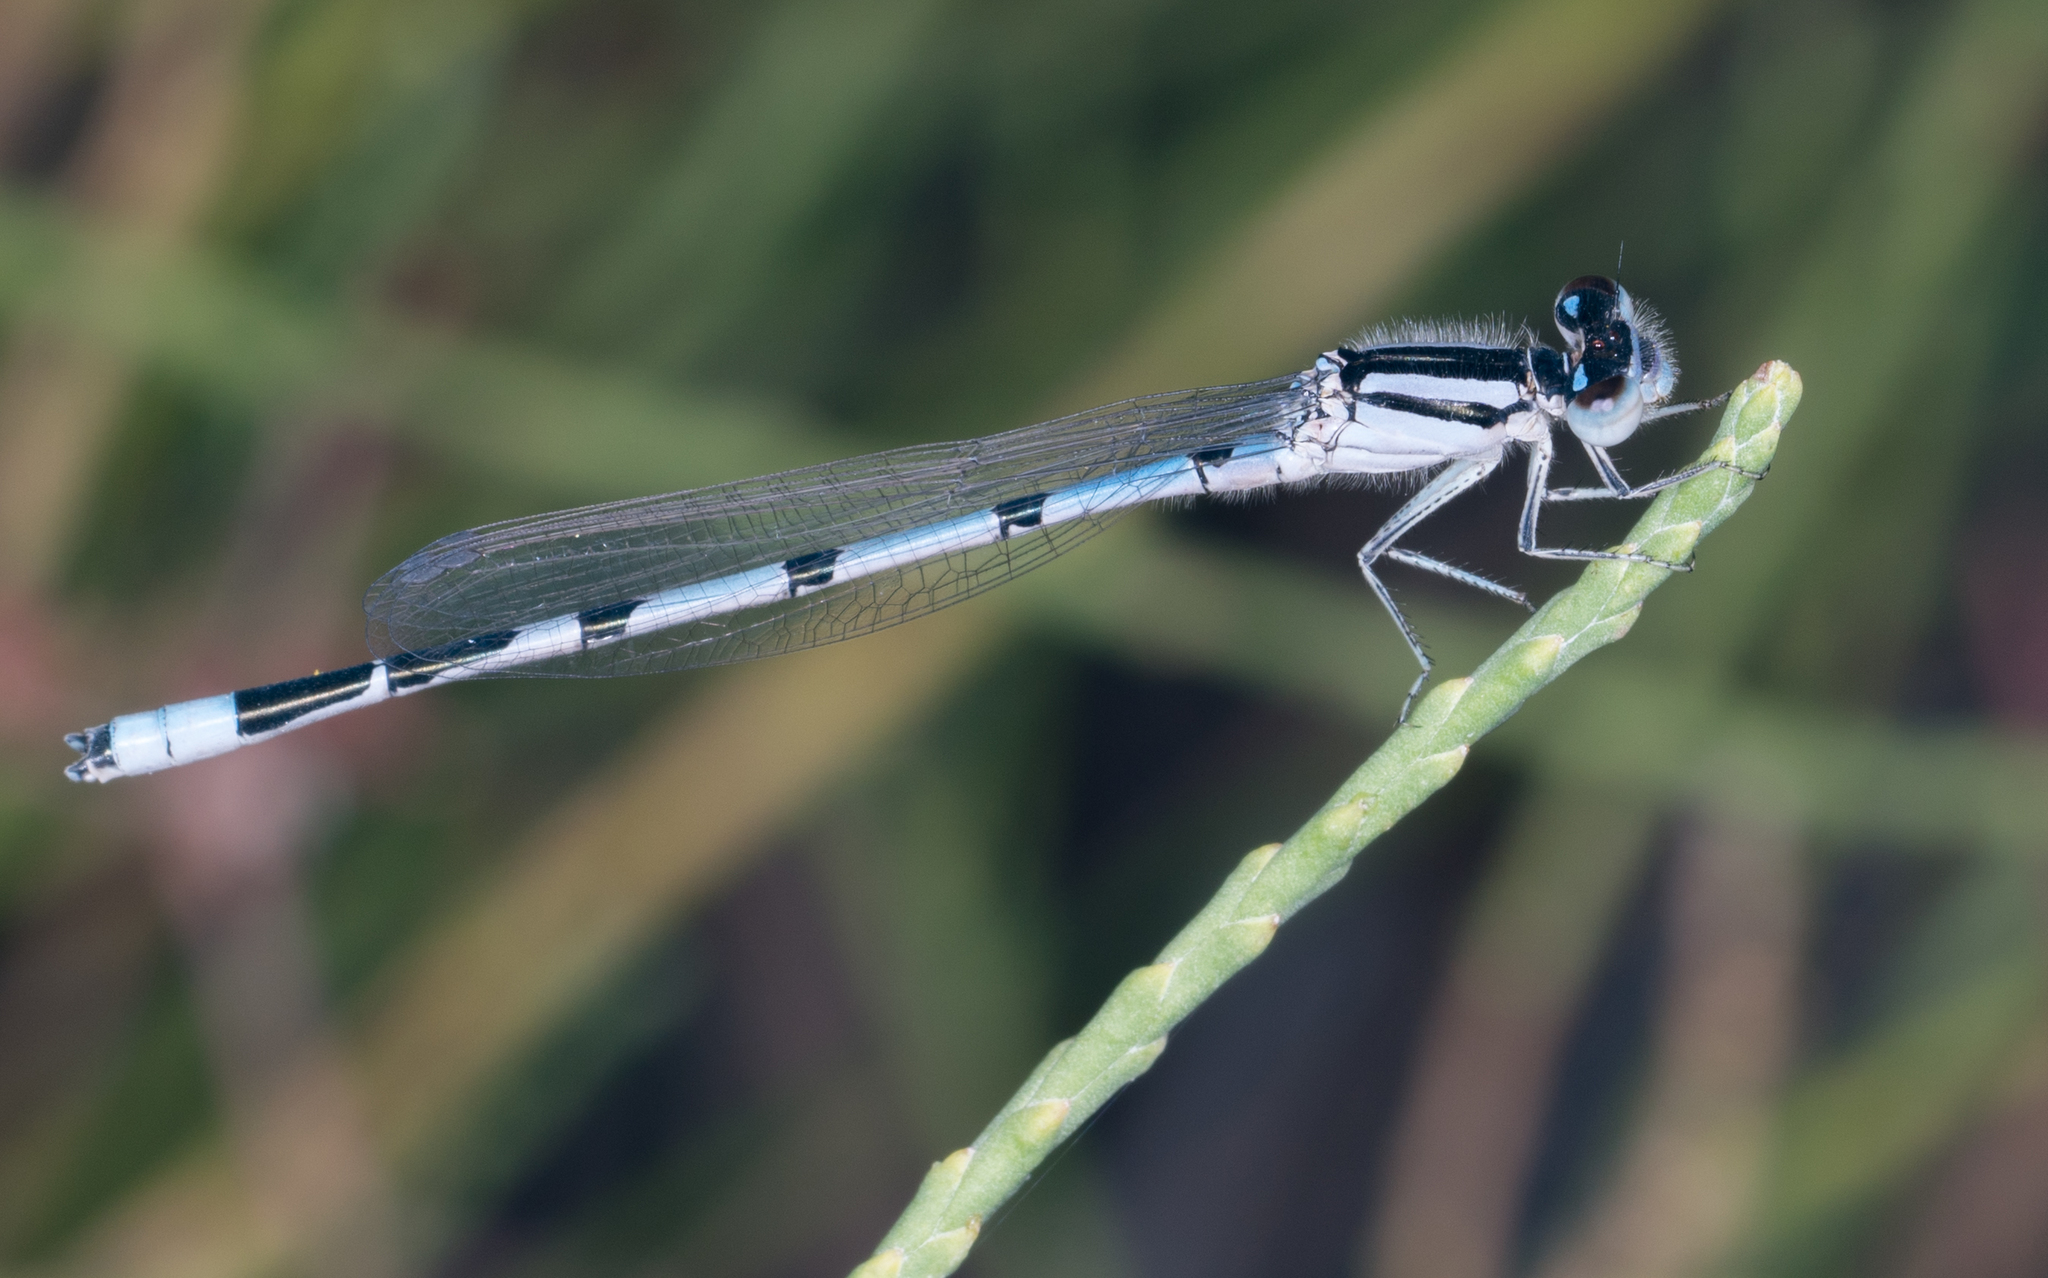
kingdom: Animalia
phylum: Arthropoda
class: Insecta
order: Odonata
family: Coenagrionidae
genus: Enallagma
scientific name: Enallagma civile
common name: Damselfly
